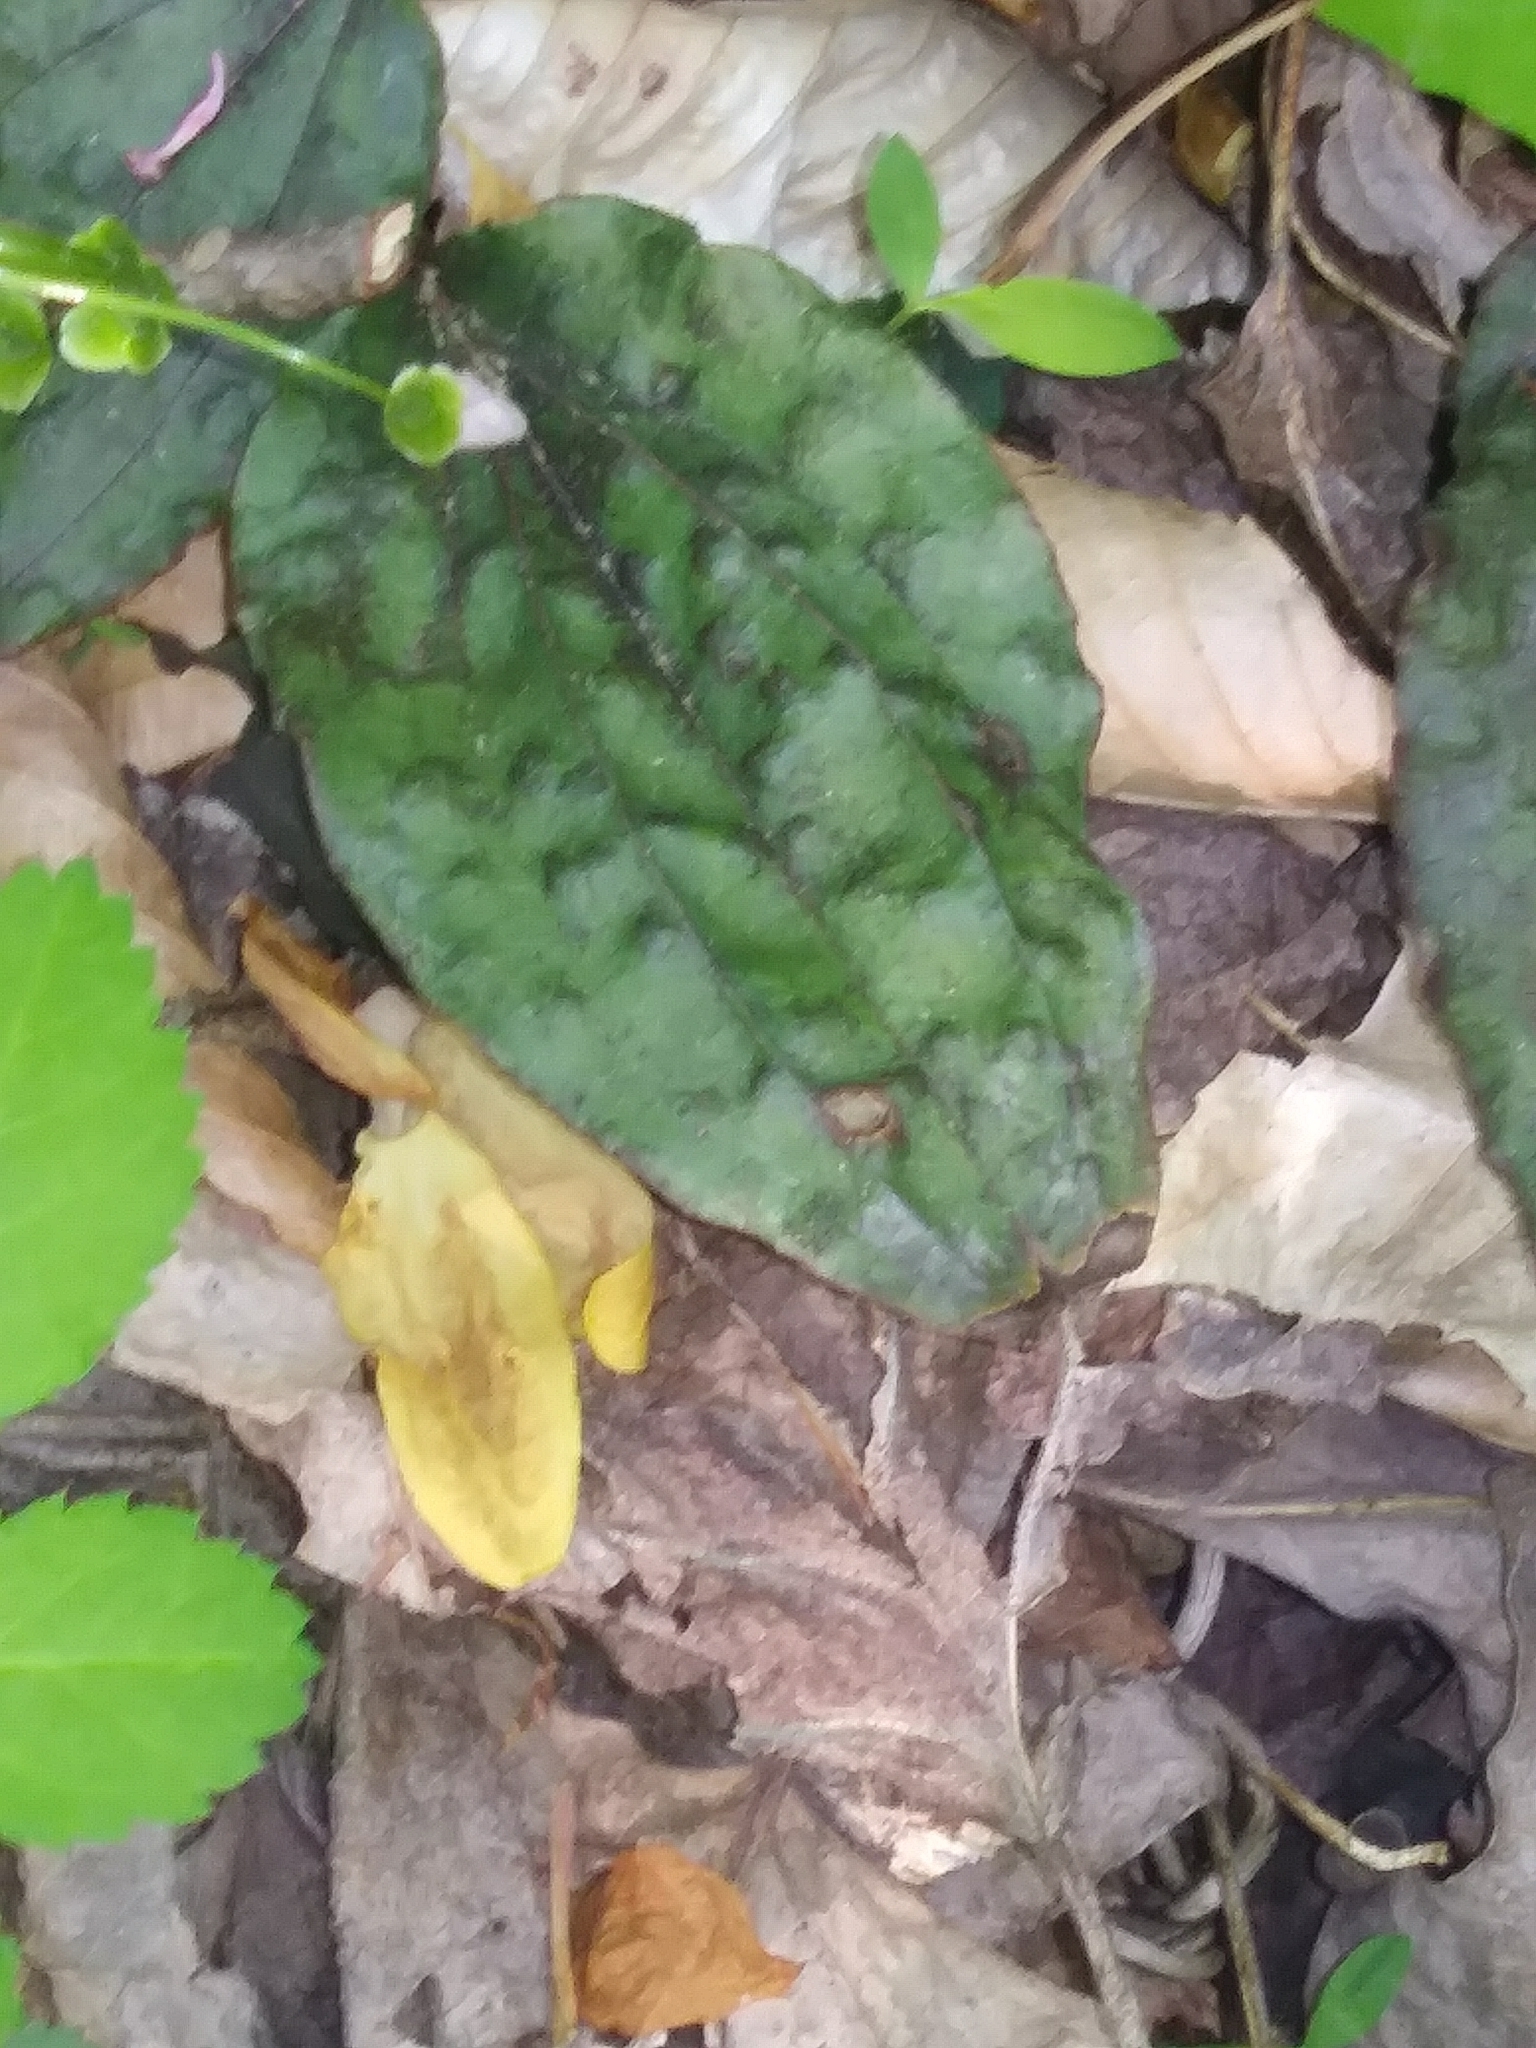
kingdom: Plantae
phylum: Tracheophyta
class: Liliopsida
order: Asparagales
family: Orchidaceae
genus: Tipularia
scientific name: Tipularia discolor
